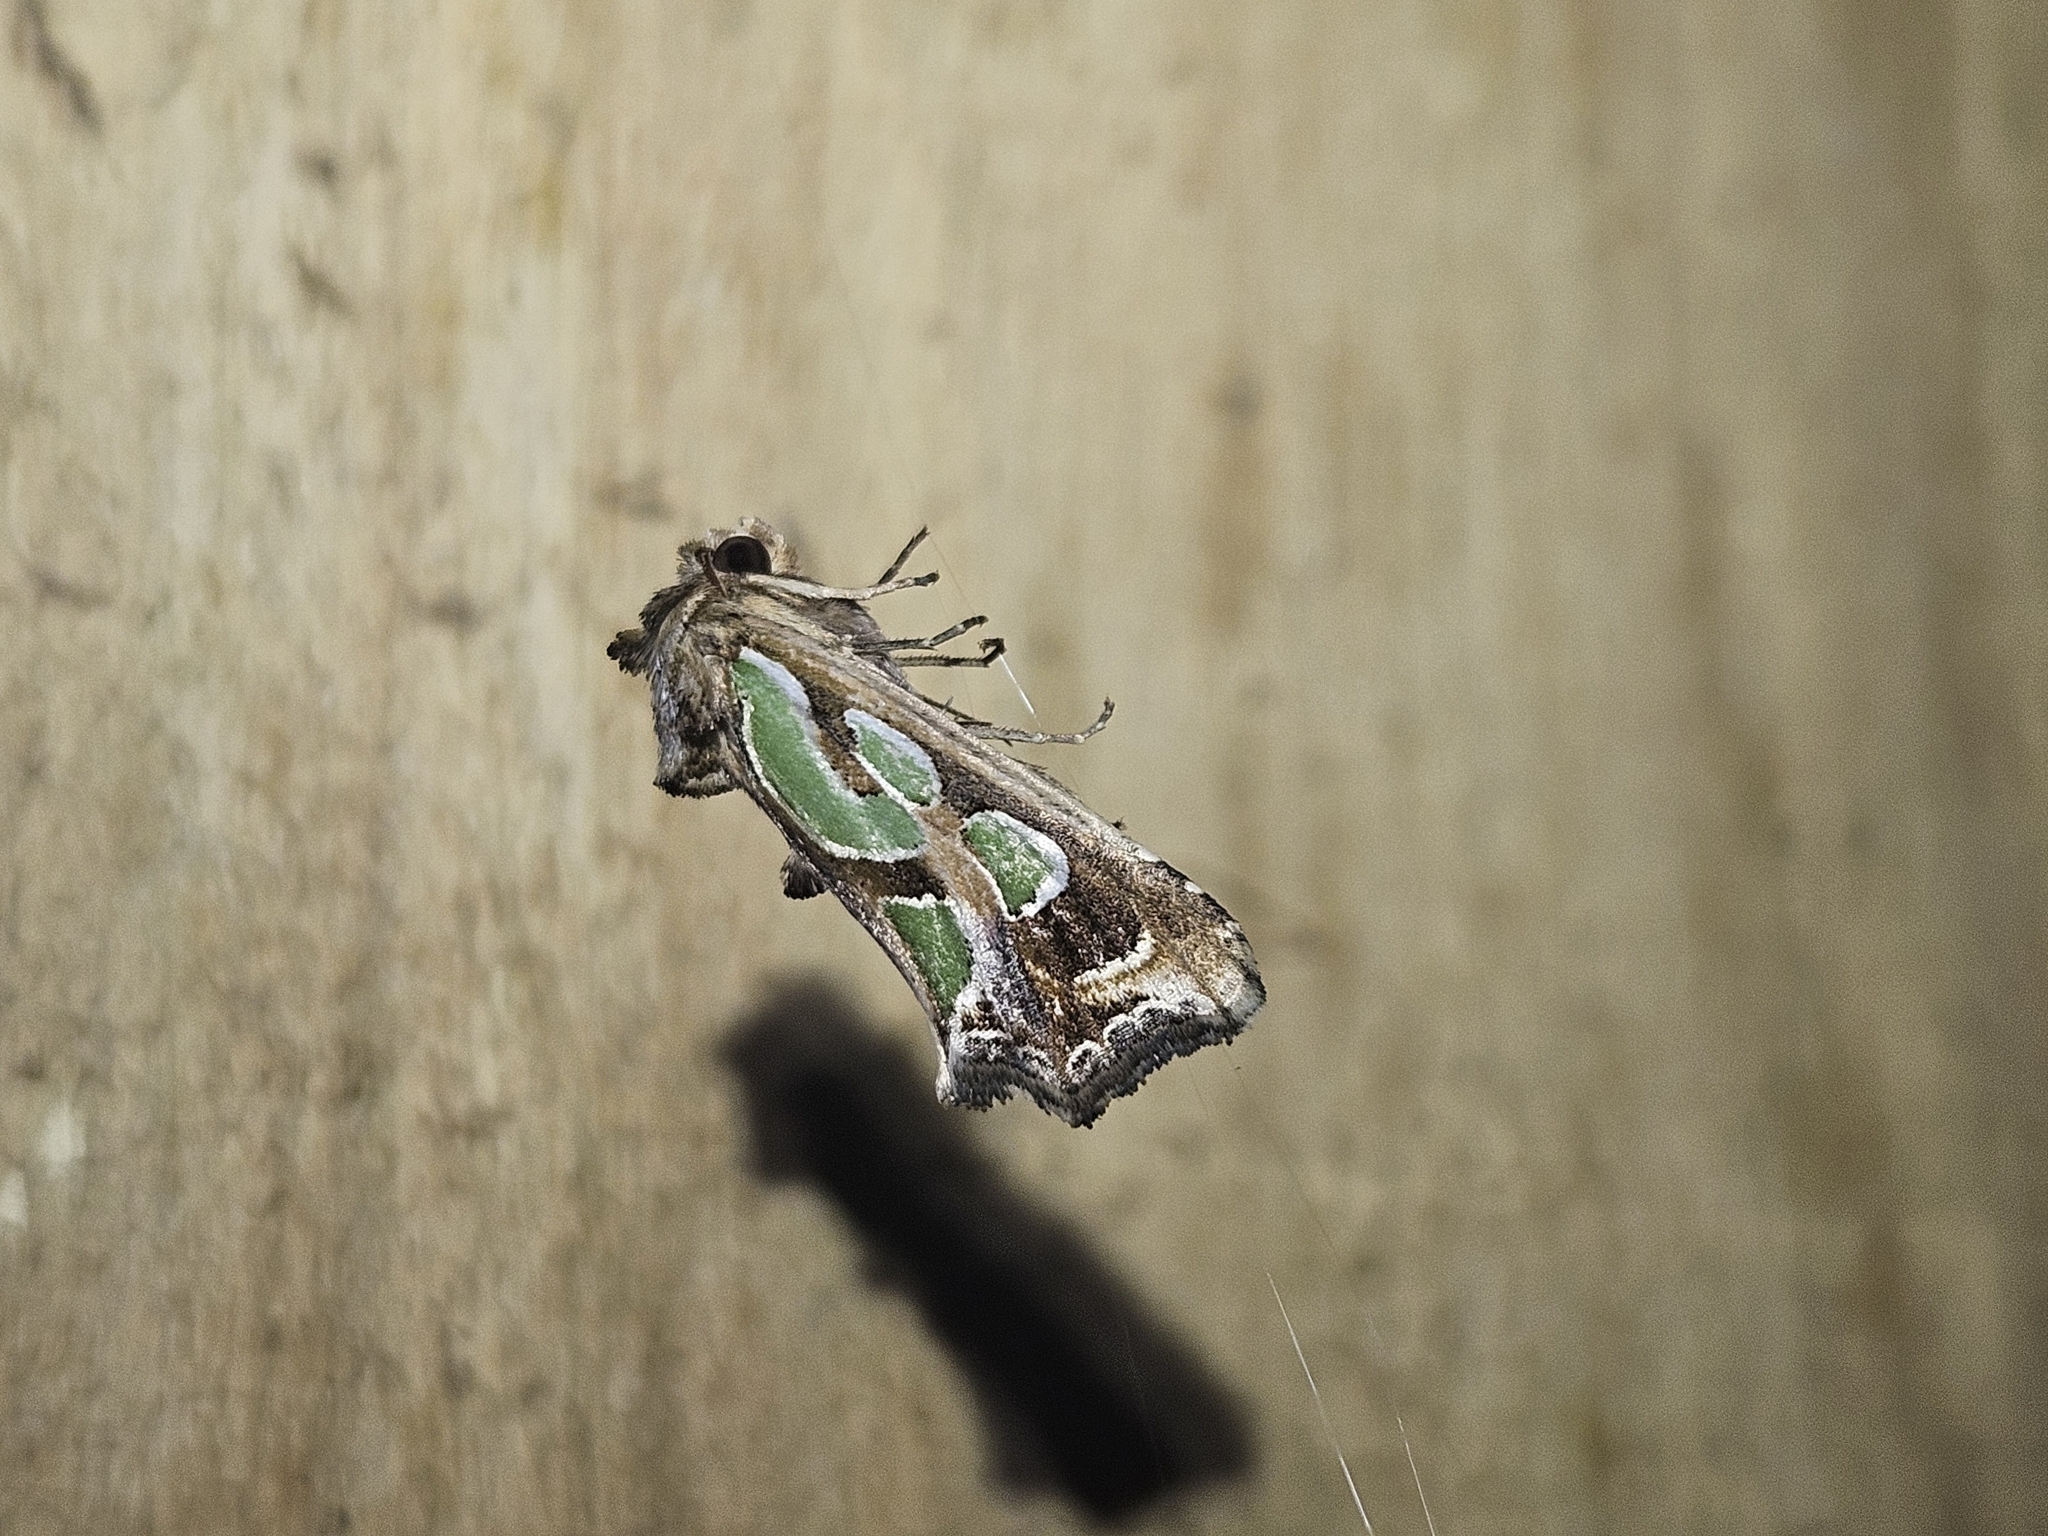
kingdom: Animalia
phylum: Arthropoda
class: Insecta
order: Lepidoptera
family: Noctuidae
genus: Cosmodes
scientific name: Cosmodes elegans
